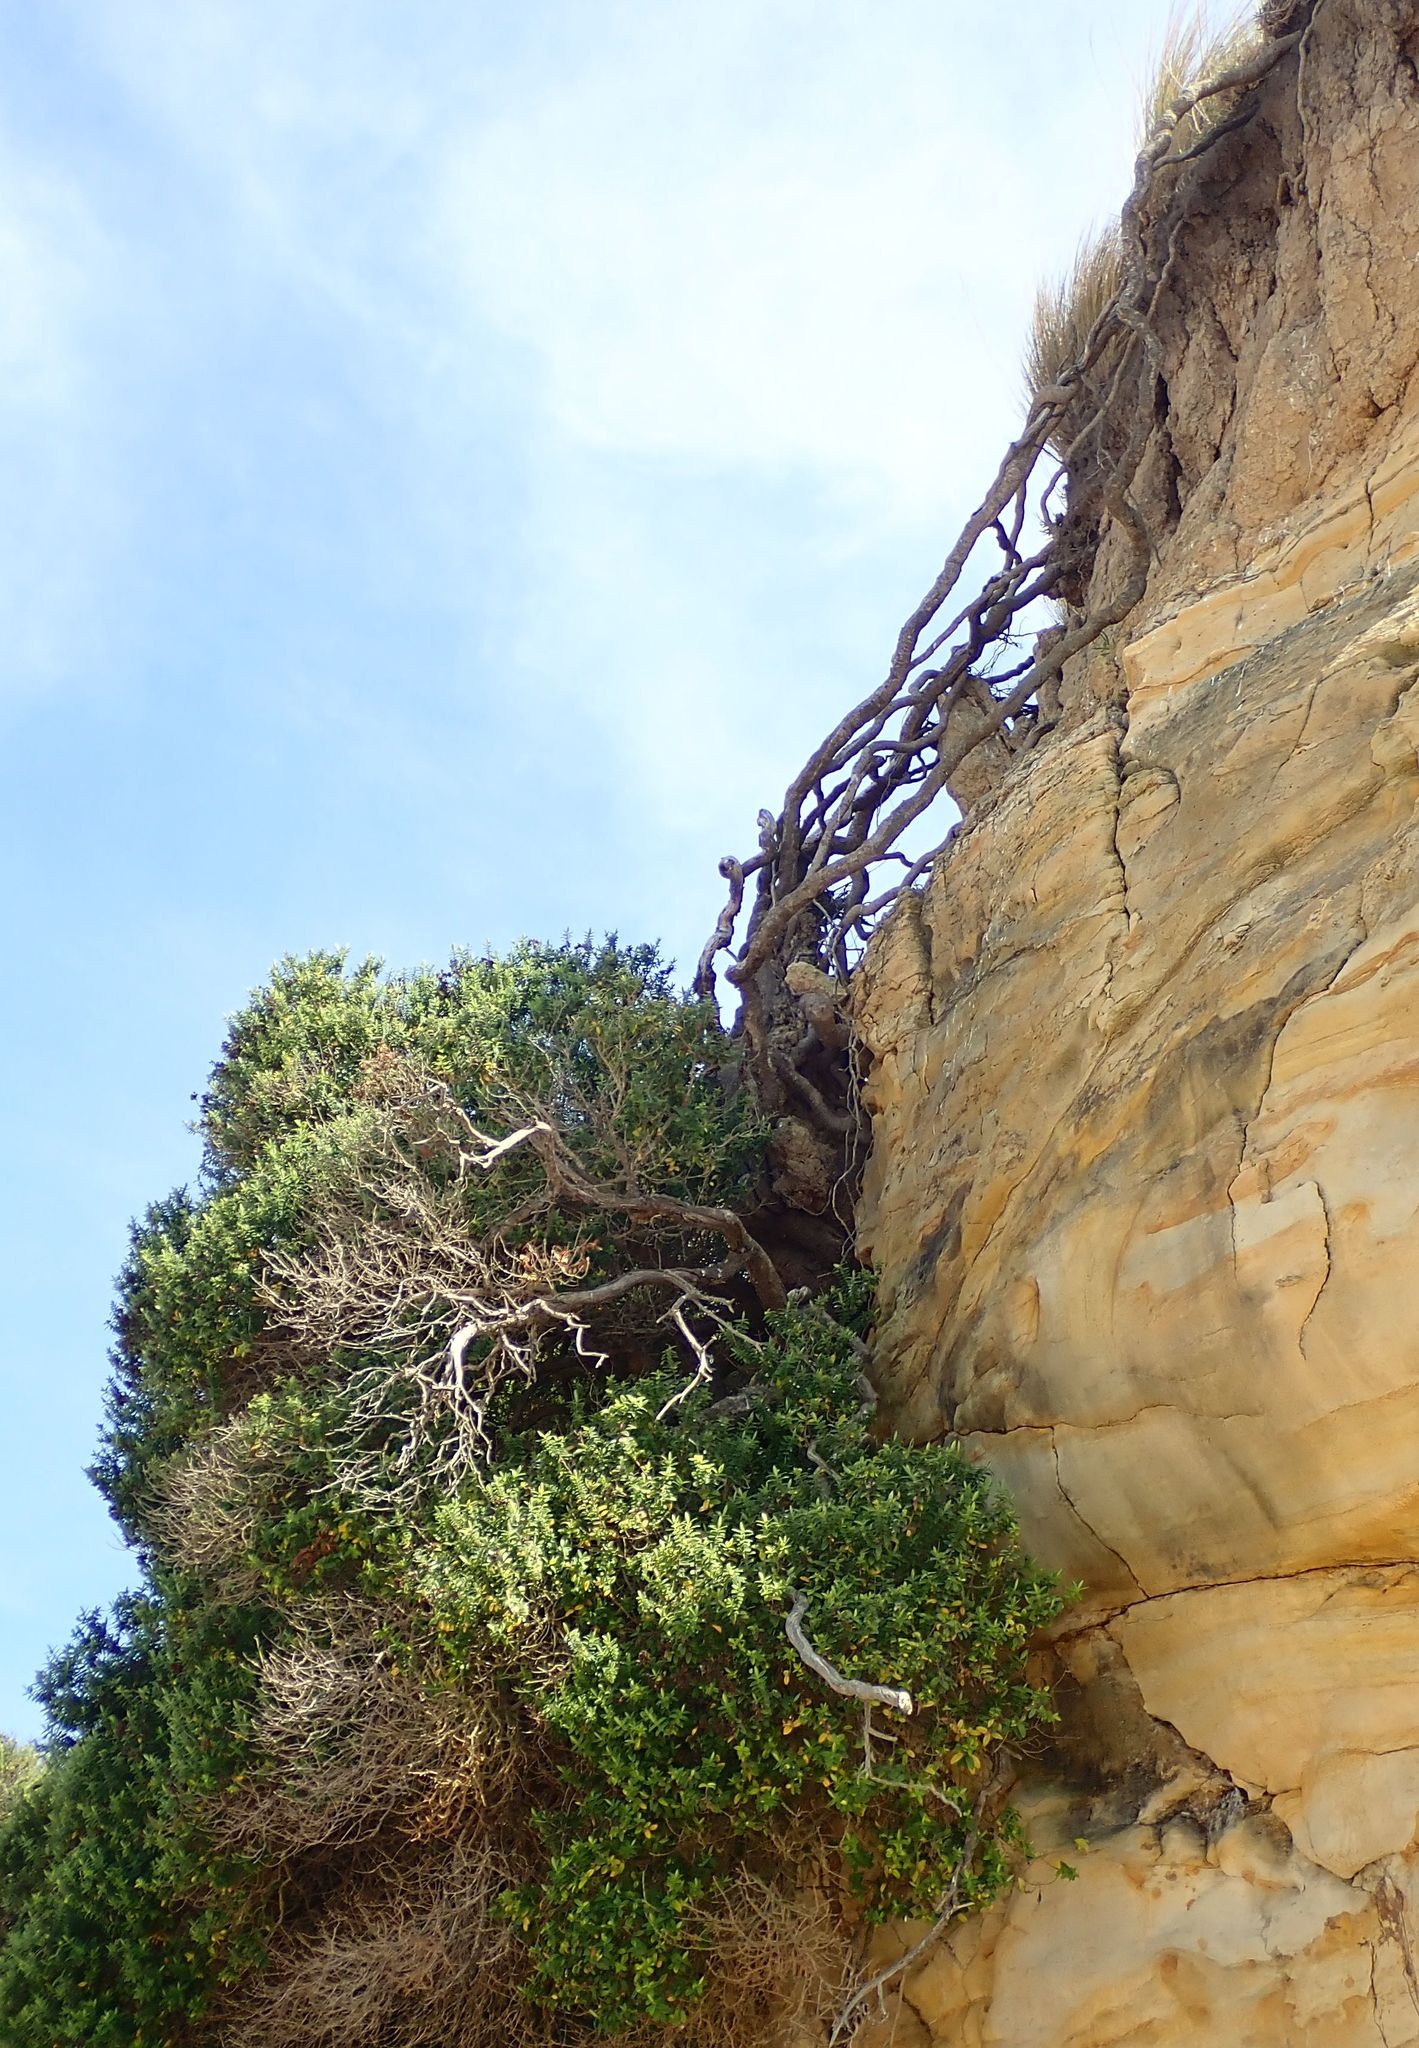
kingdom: Plantae
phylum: Tracheophyta
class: Magnoliopsida
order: Lamiales
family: Plantaginaceae
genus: Veronica
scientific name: Veronica elliptica
